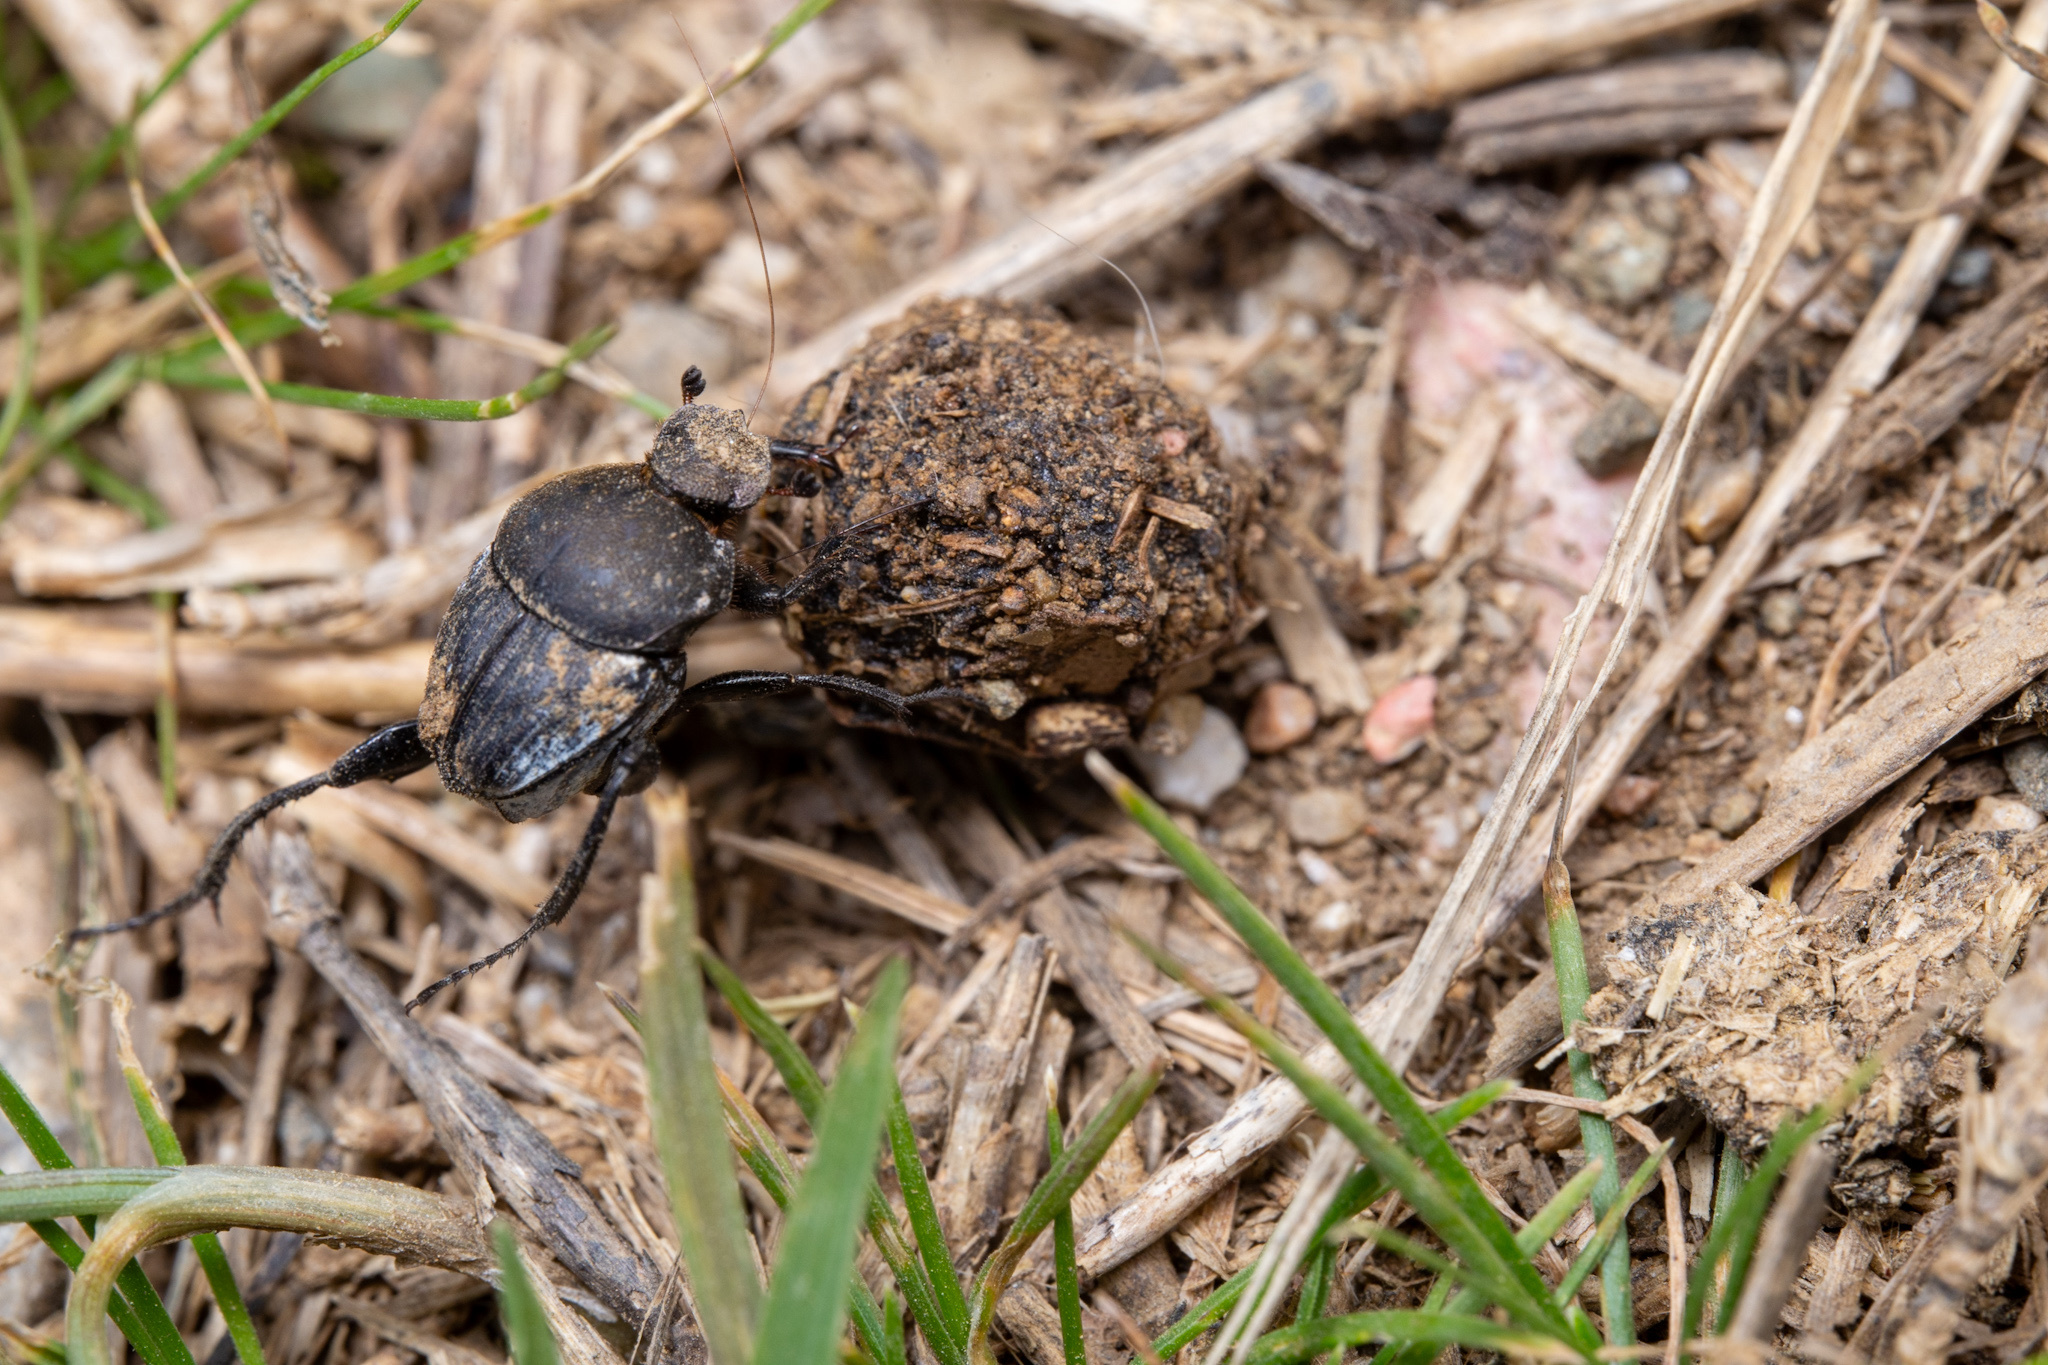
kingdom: Animalia
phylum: Arthropoda
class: Insecta
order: Coleoptera
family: Scarabaeidae
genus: Sisyphus
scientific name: Sisyphus schaefferi
